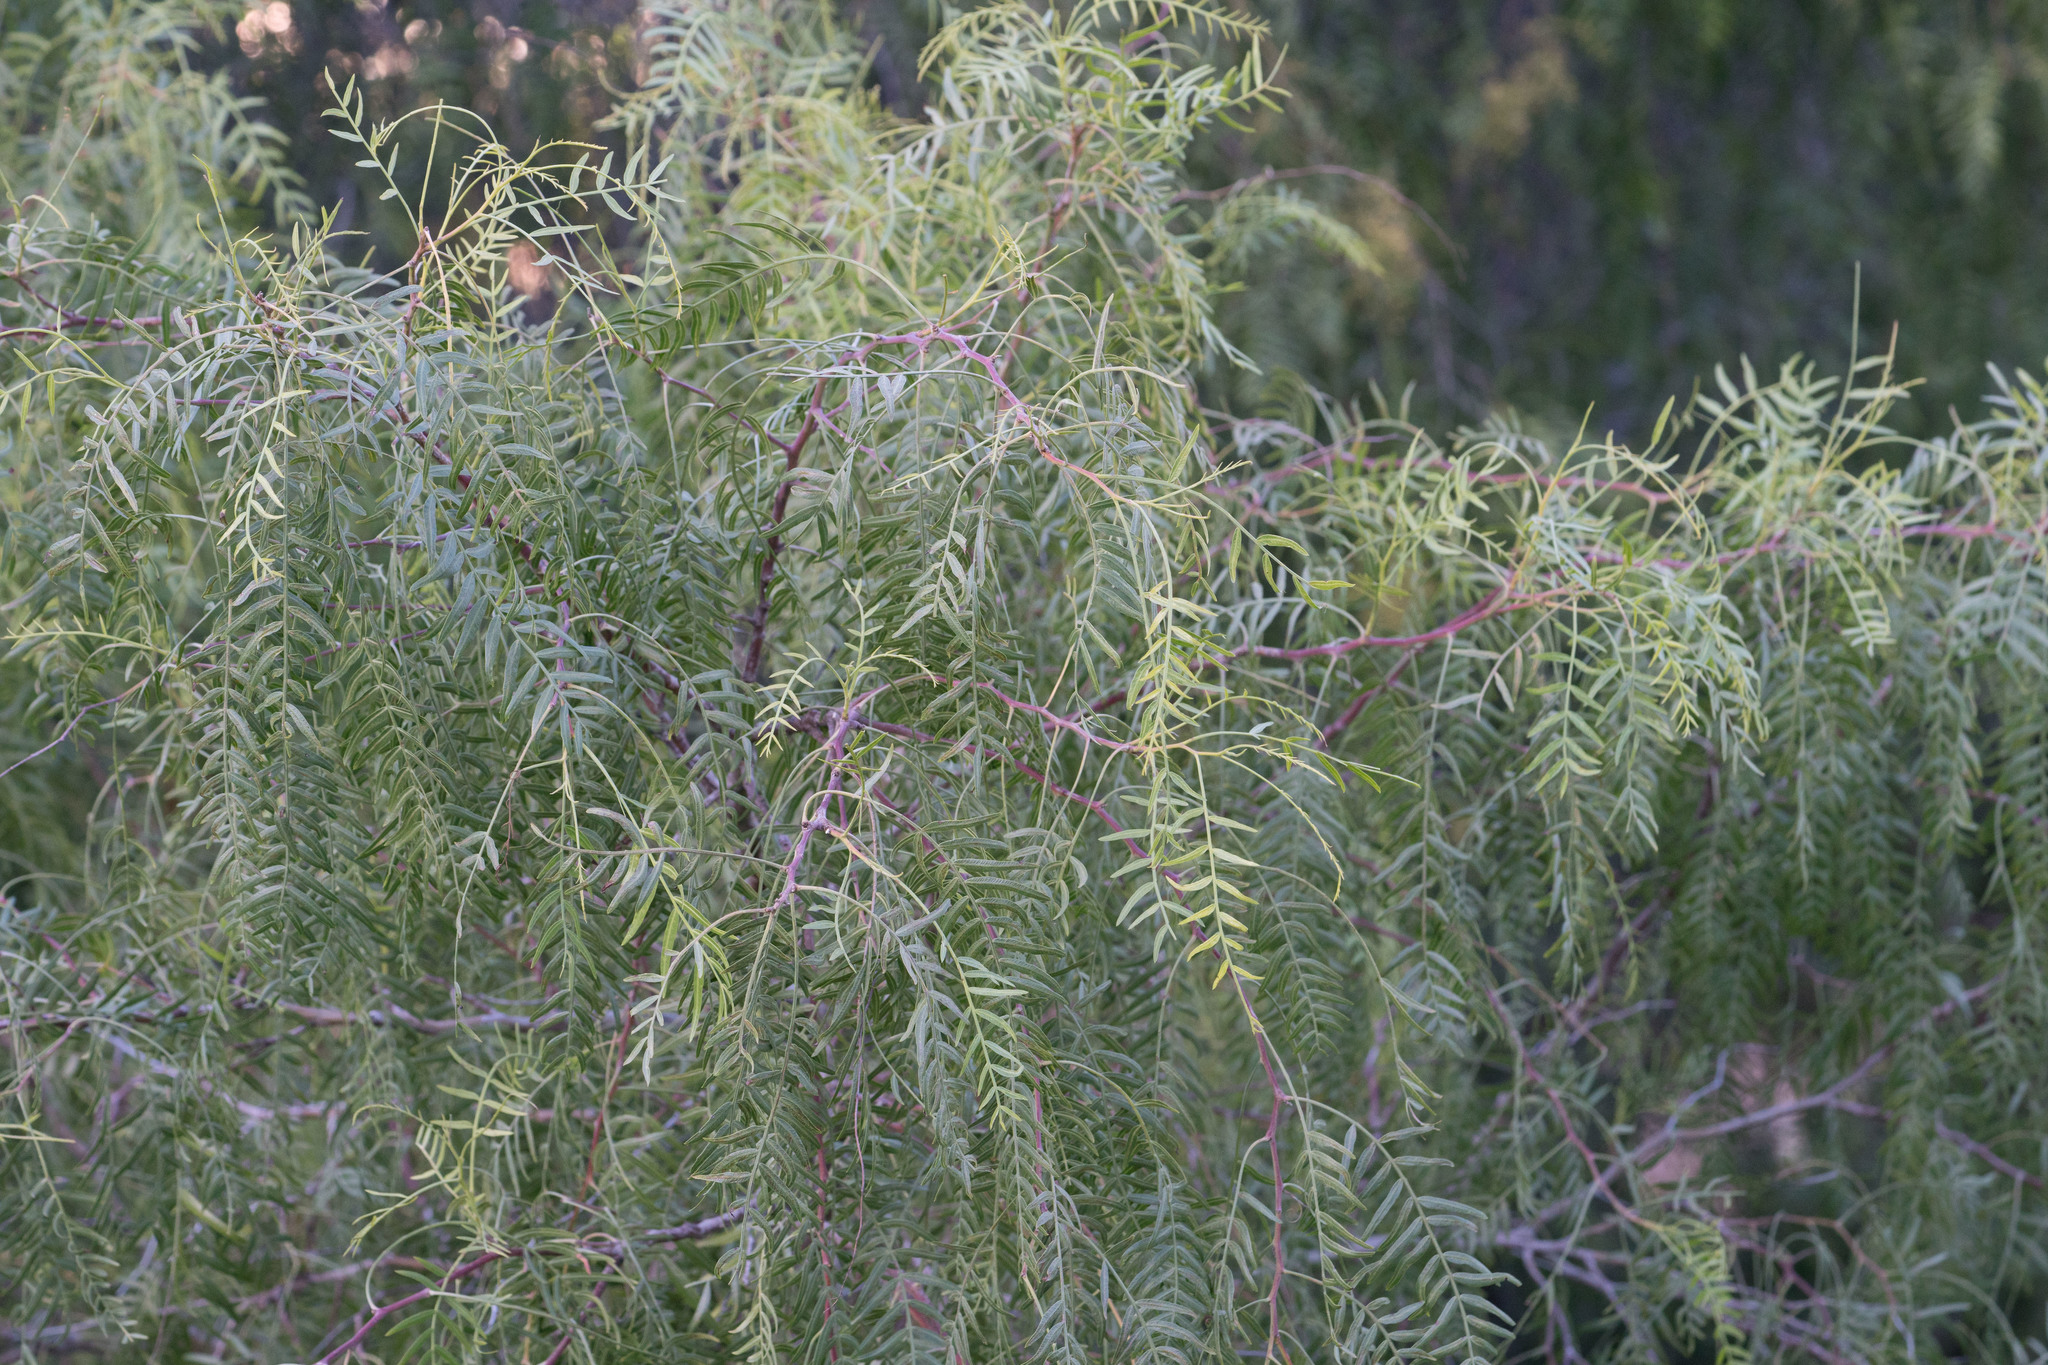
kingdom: Plantae
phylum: Tracheophyta
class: Magnoliopsida
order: Sapindales
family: Anacardiaceae
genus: Schinus
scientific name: Schinus molle
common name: Peruvian peppertree
